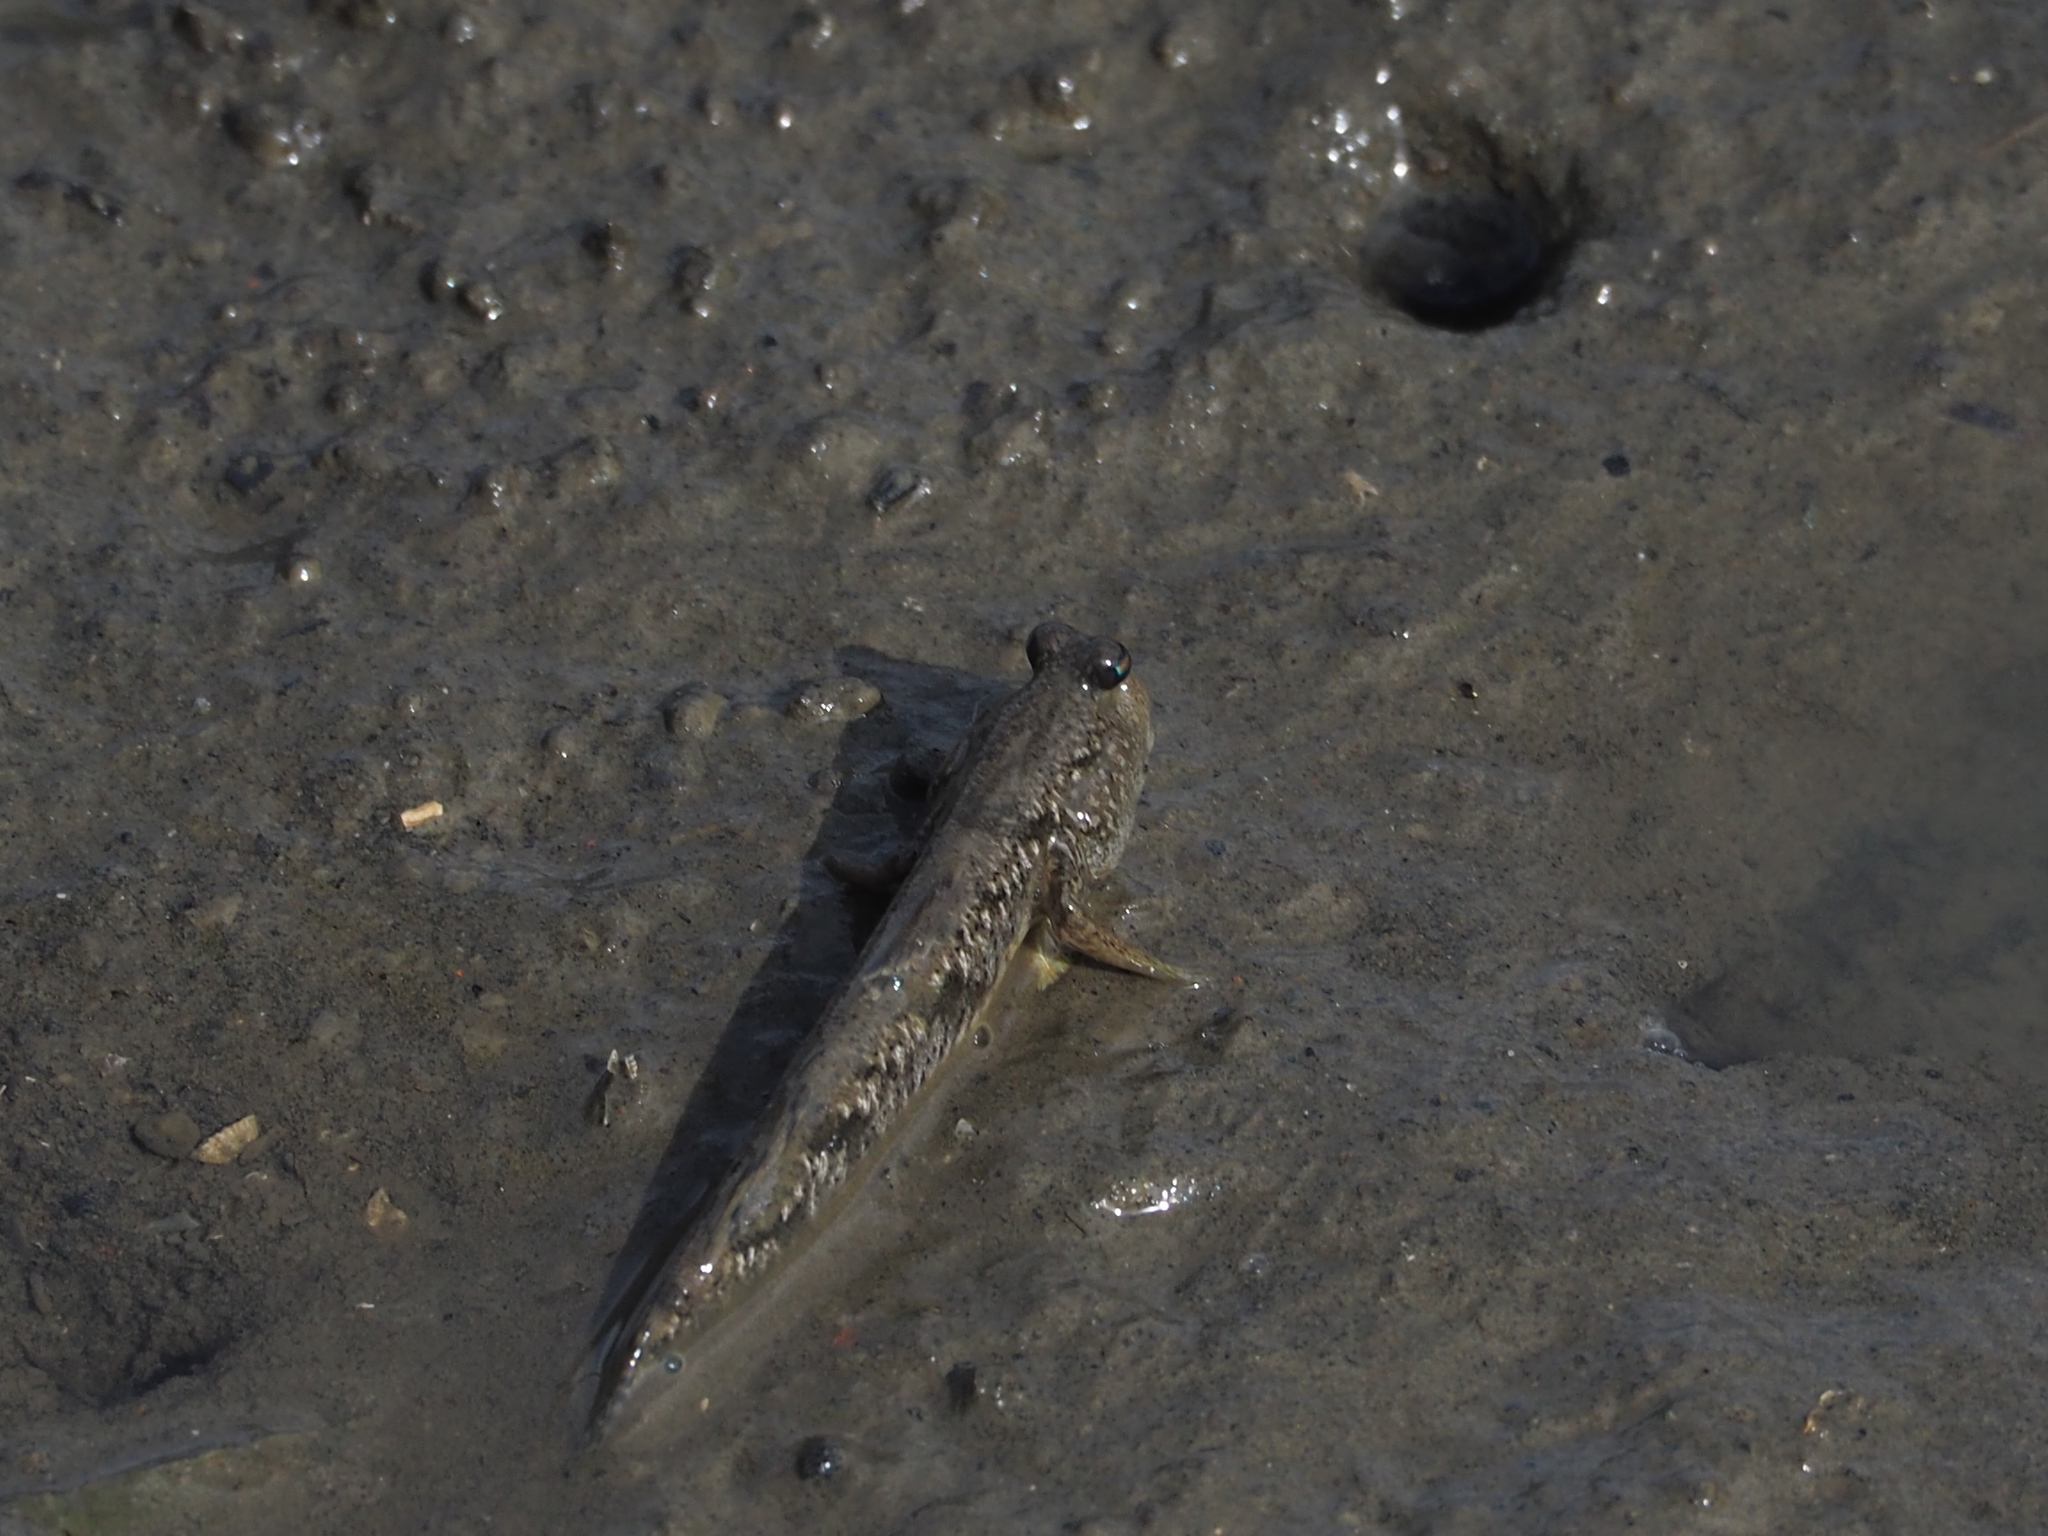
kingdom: Animalia
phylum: Chordata
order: Perciformes
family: Gobiidae
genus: Periophthalmus
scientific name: Periophthalmus modestus
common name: Black goby
